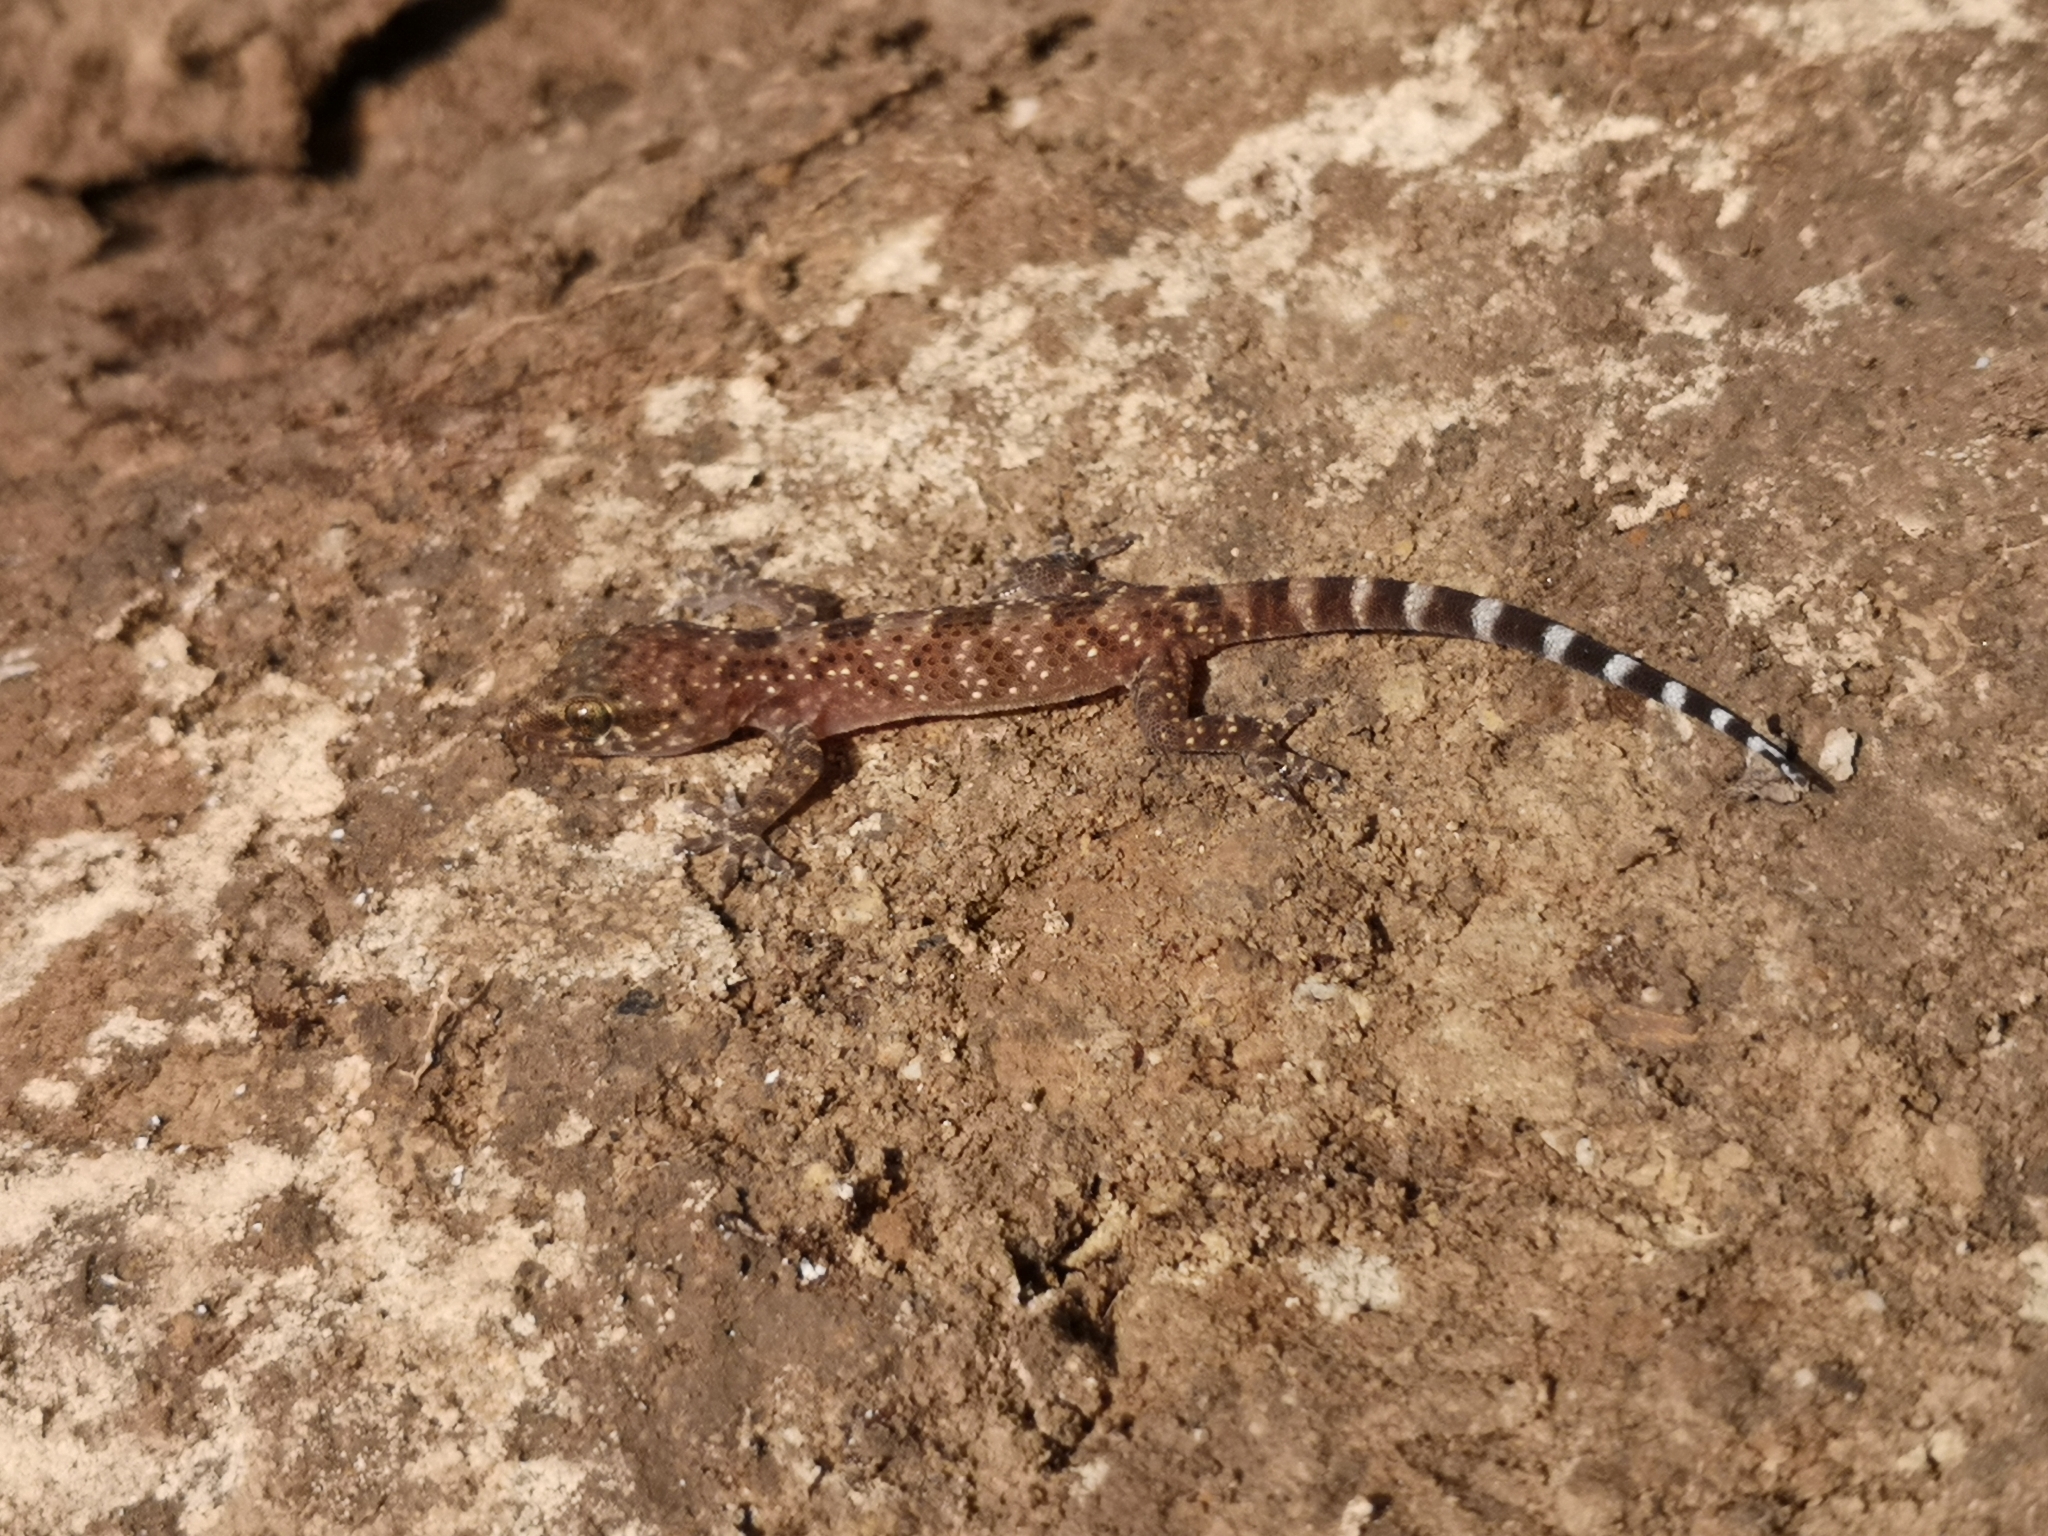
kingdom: Animalia
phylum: Chordata
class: Squamata
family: Gekkonidae
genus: Hemidactylus
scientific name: Hemidactylus turcicus
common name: Turkish gecko
